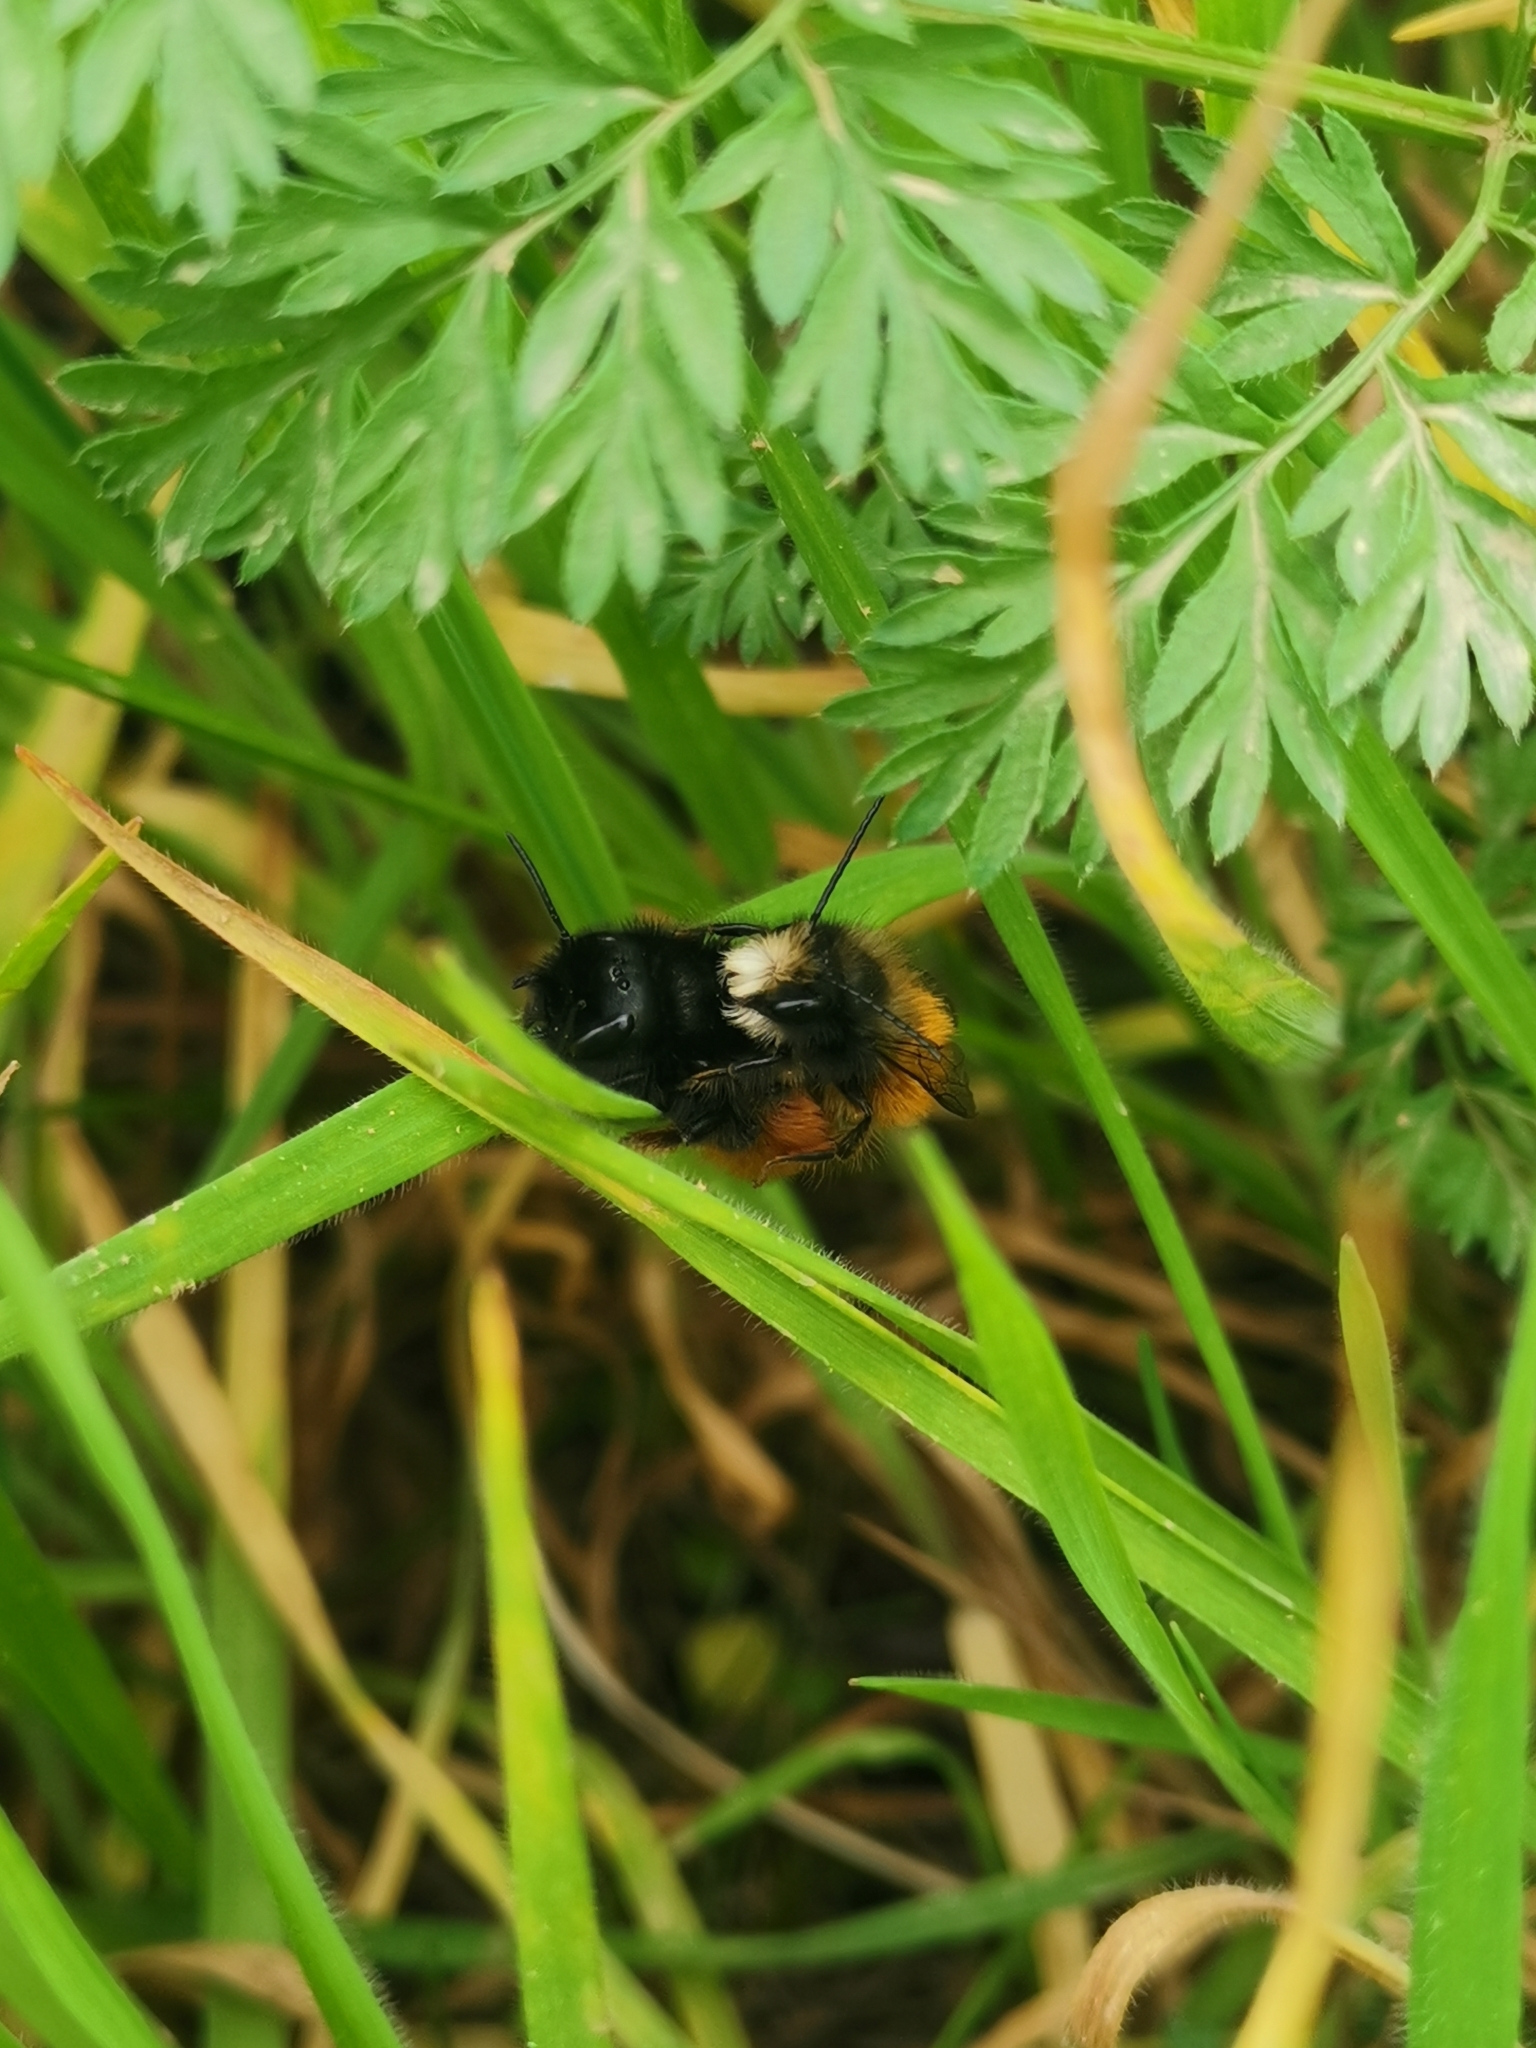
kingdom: Animalia
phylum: Arthropoda
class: Insecta
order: Hymenoptera
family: Megachilidae
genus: Osmia
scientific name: Osmia cornuta
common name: Mason bee
